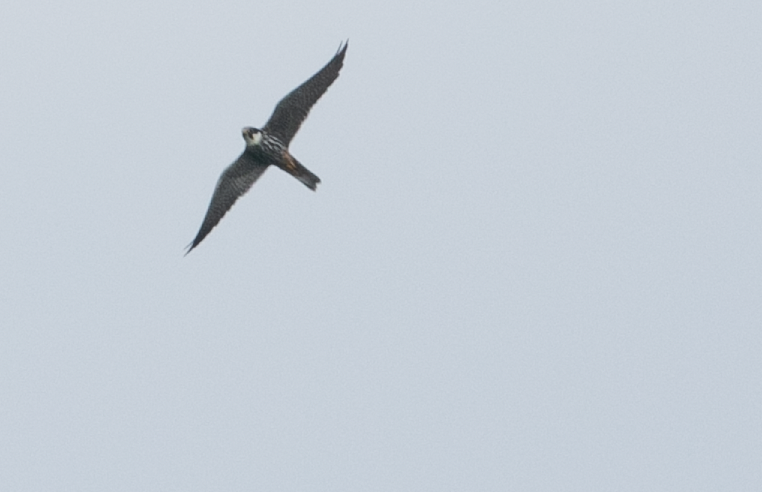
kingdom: Animalia
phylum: Chordata
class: Aves
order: Falconiformes
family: Falconidae
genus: Falco
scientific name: Falco subbuteo
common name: Eurasian hobby
